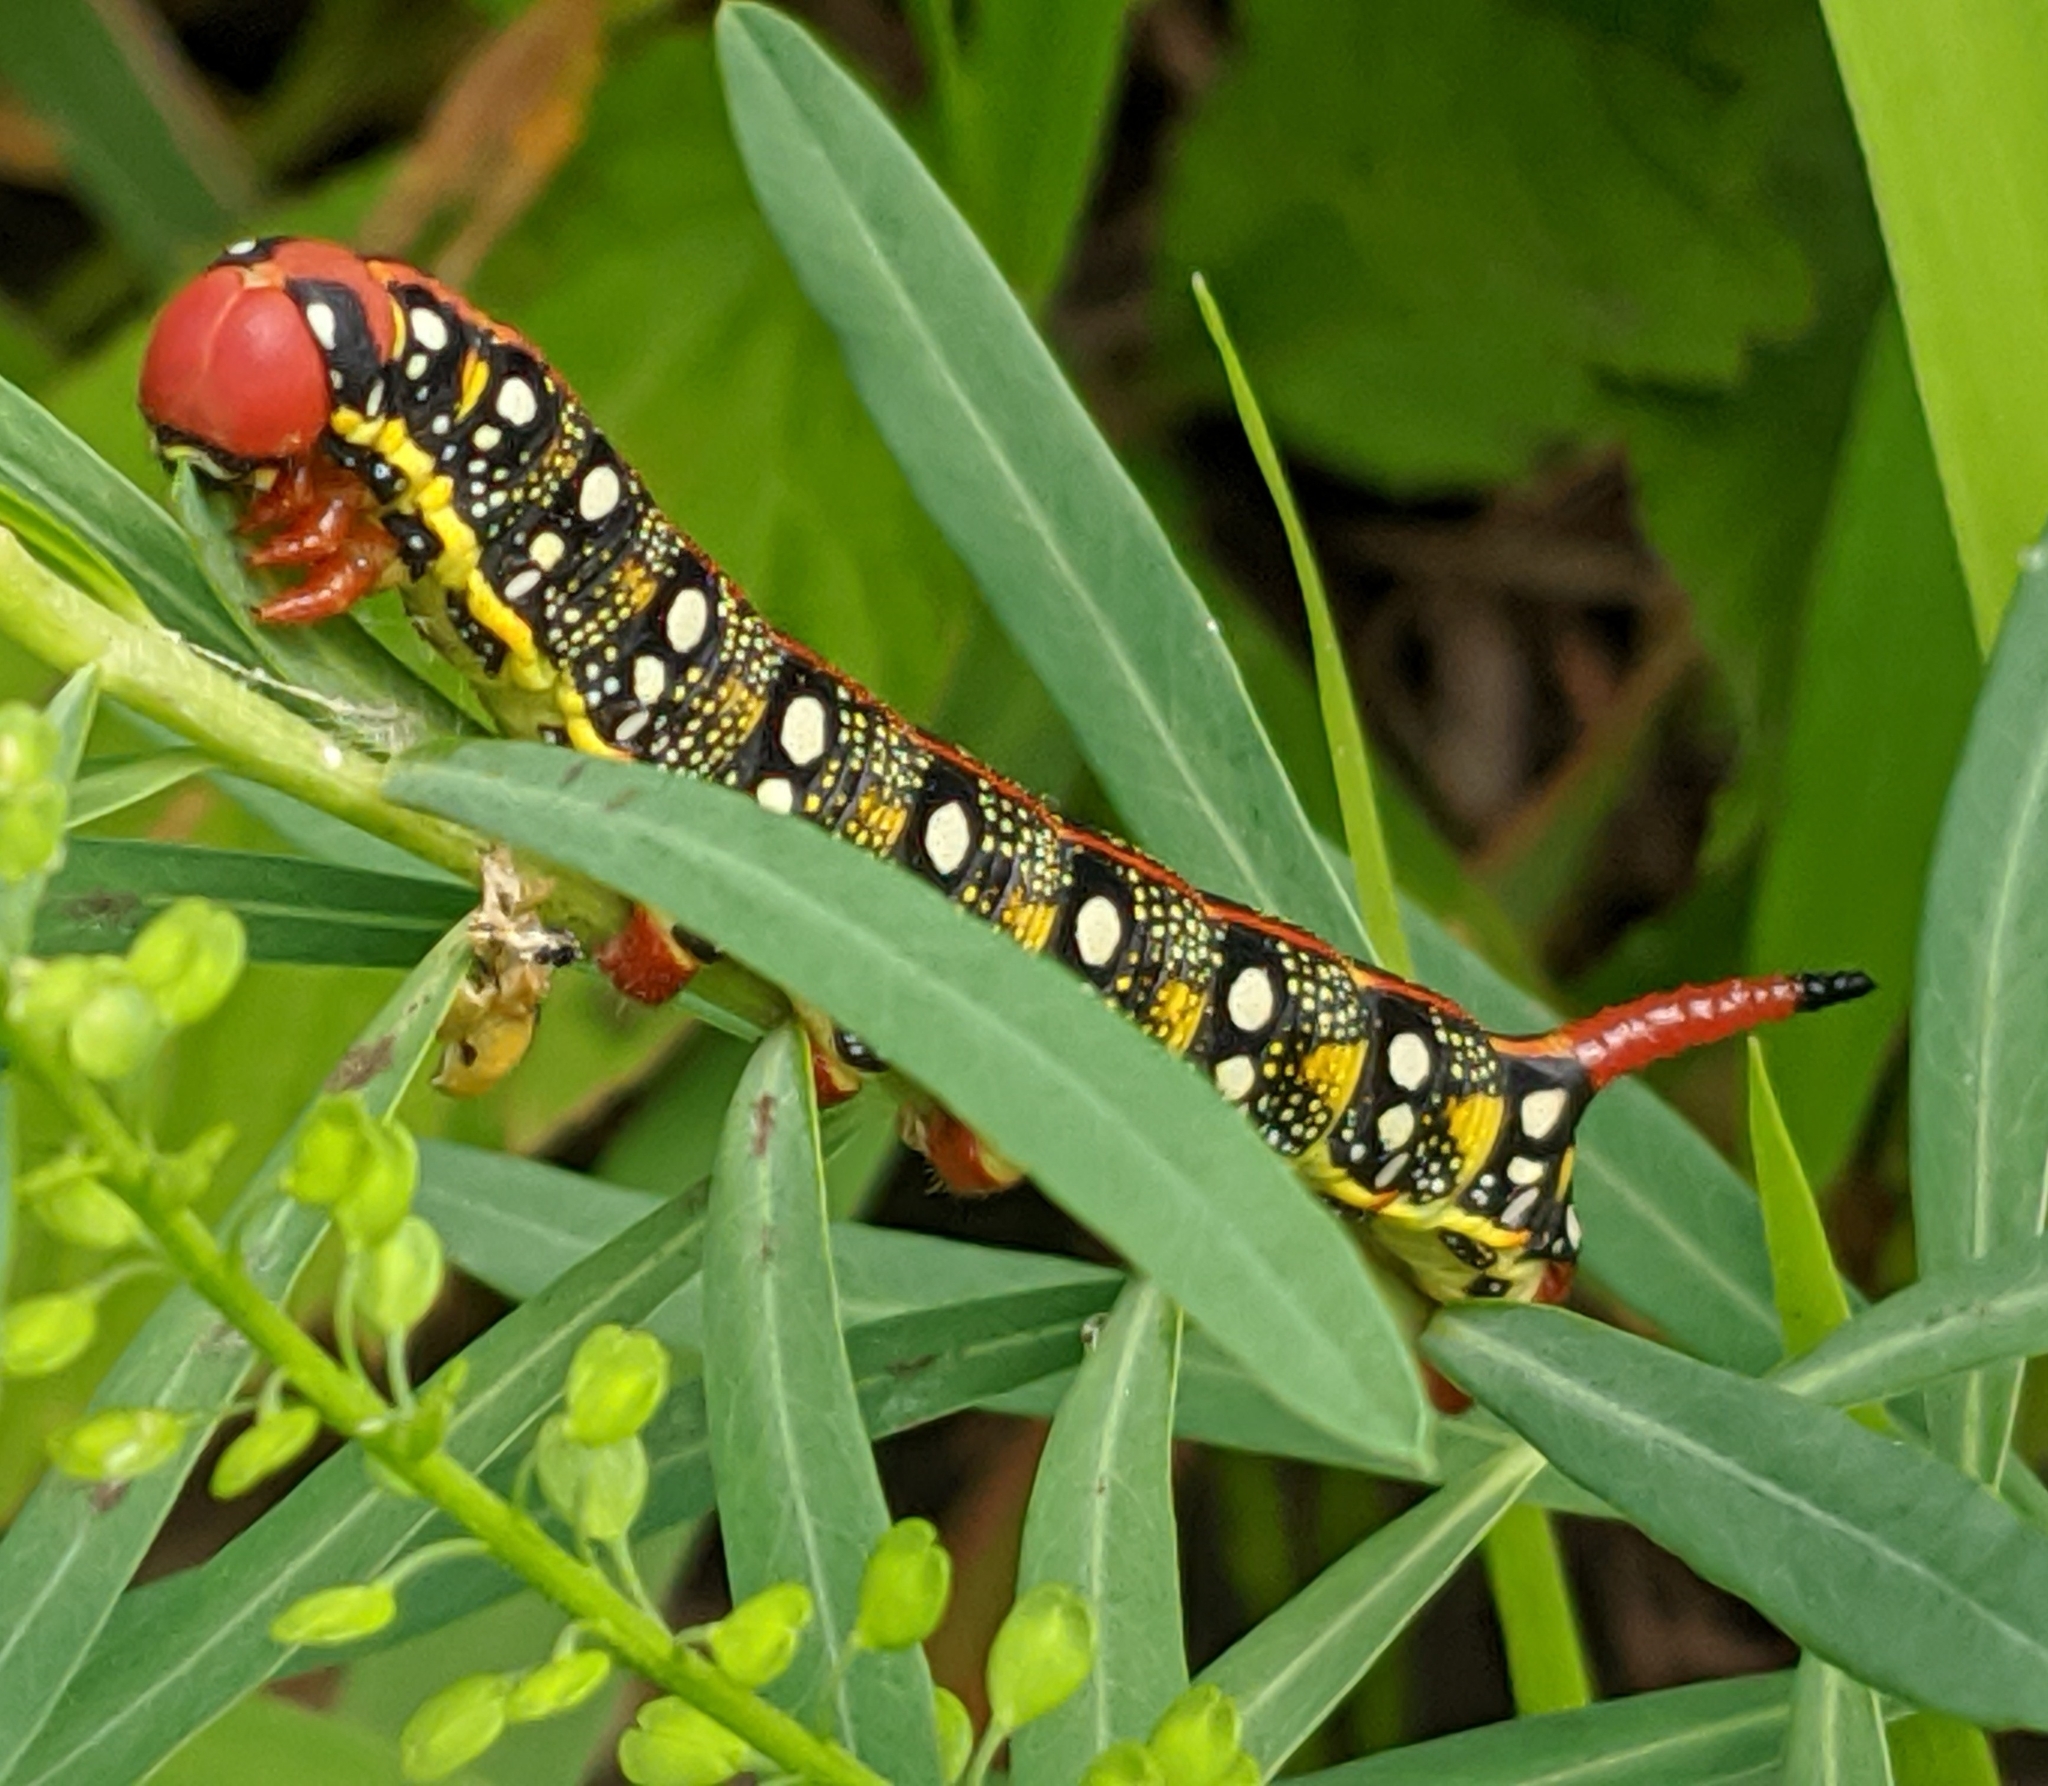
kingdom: Animalia
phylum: Arthropoda
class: Insecta
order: Lepidoptera
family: Sphingidae
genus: Hyles
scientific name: Hyles euphorbiae
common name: Spurge hawk-moth
